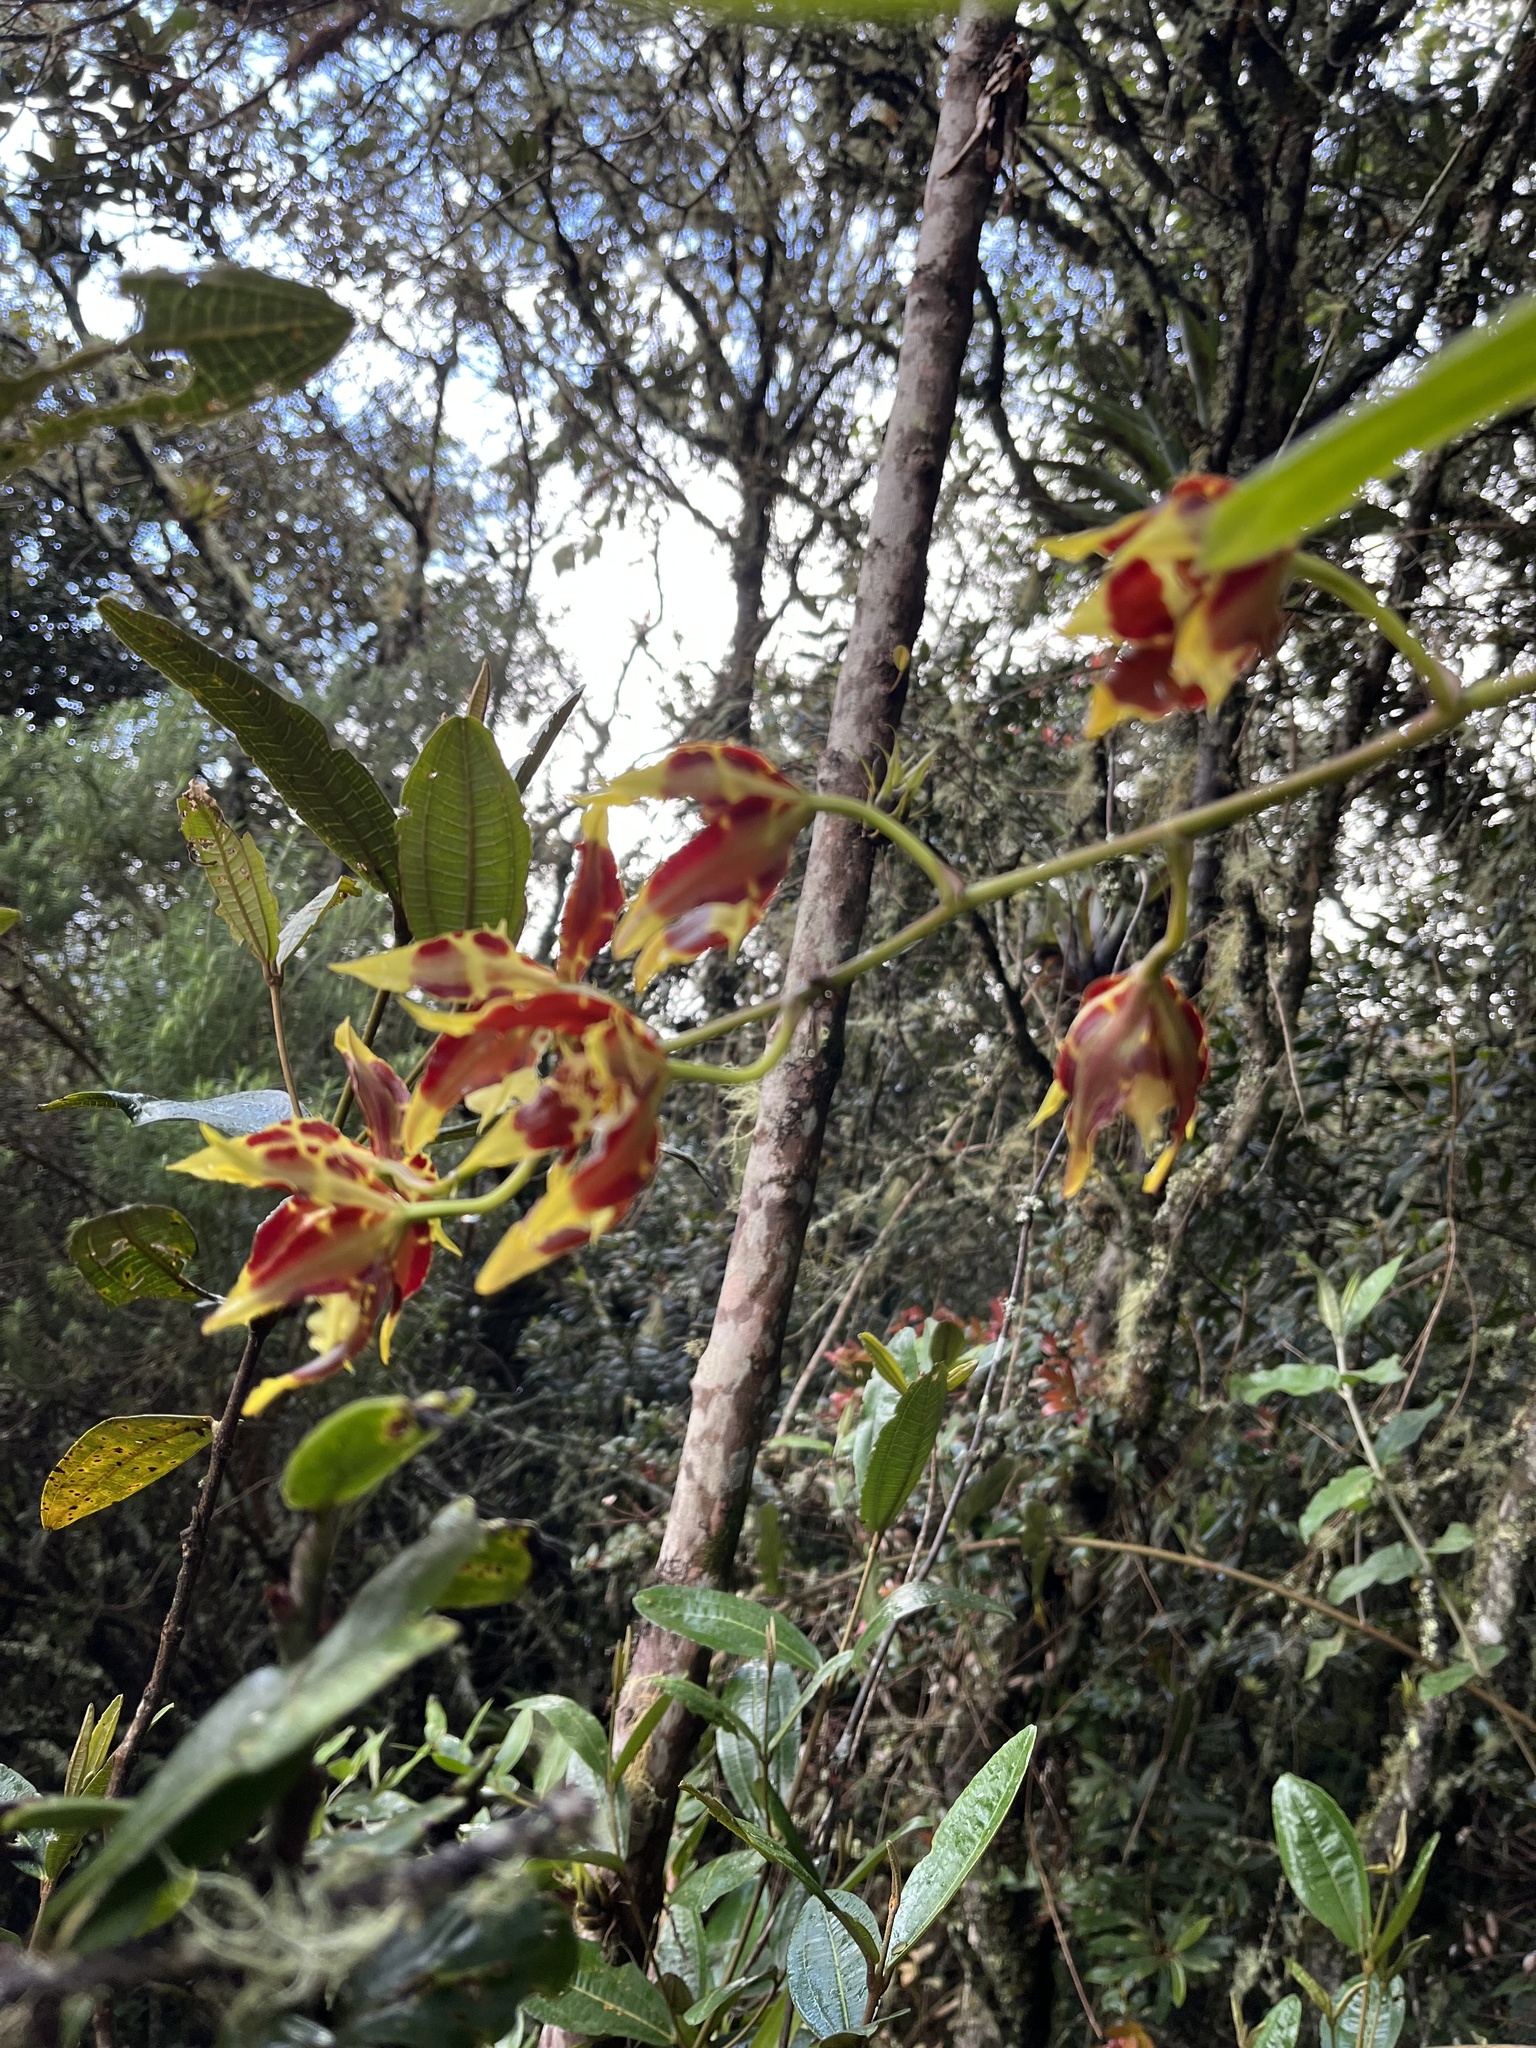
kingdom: Plantae
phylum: Tracheophyta
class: Liliopsida
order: Asparagales
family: Orchidaceae
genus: Oncidium
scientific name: Oncidium luteopurpureum
